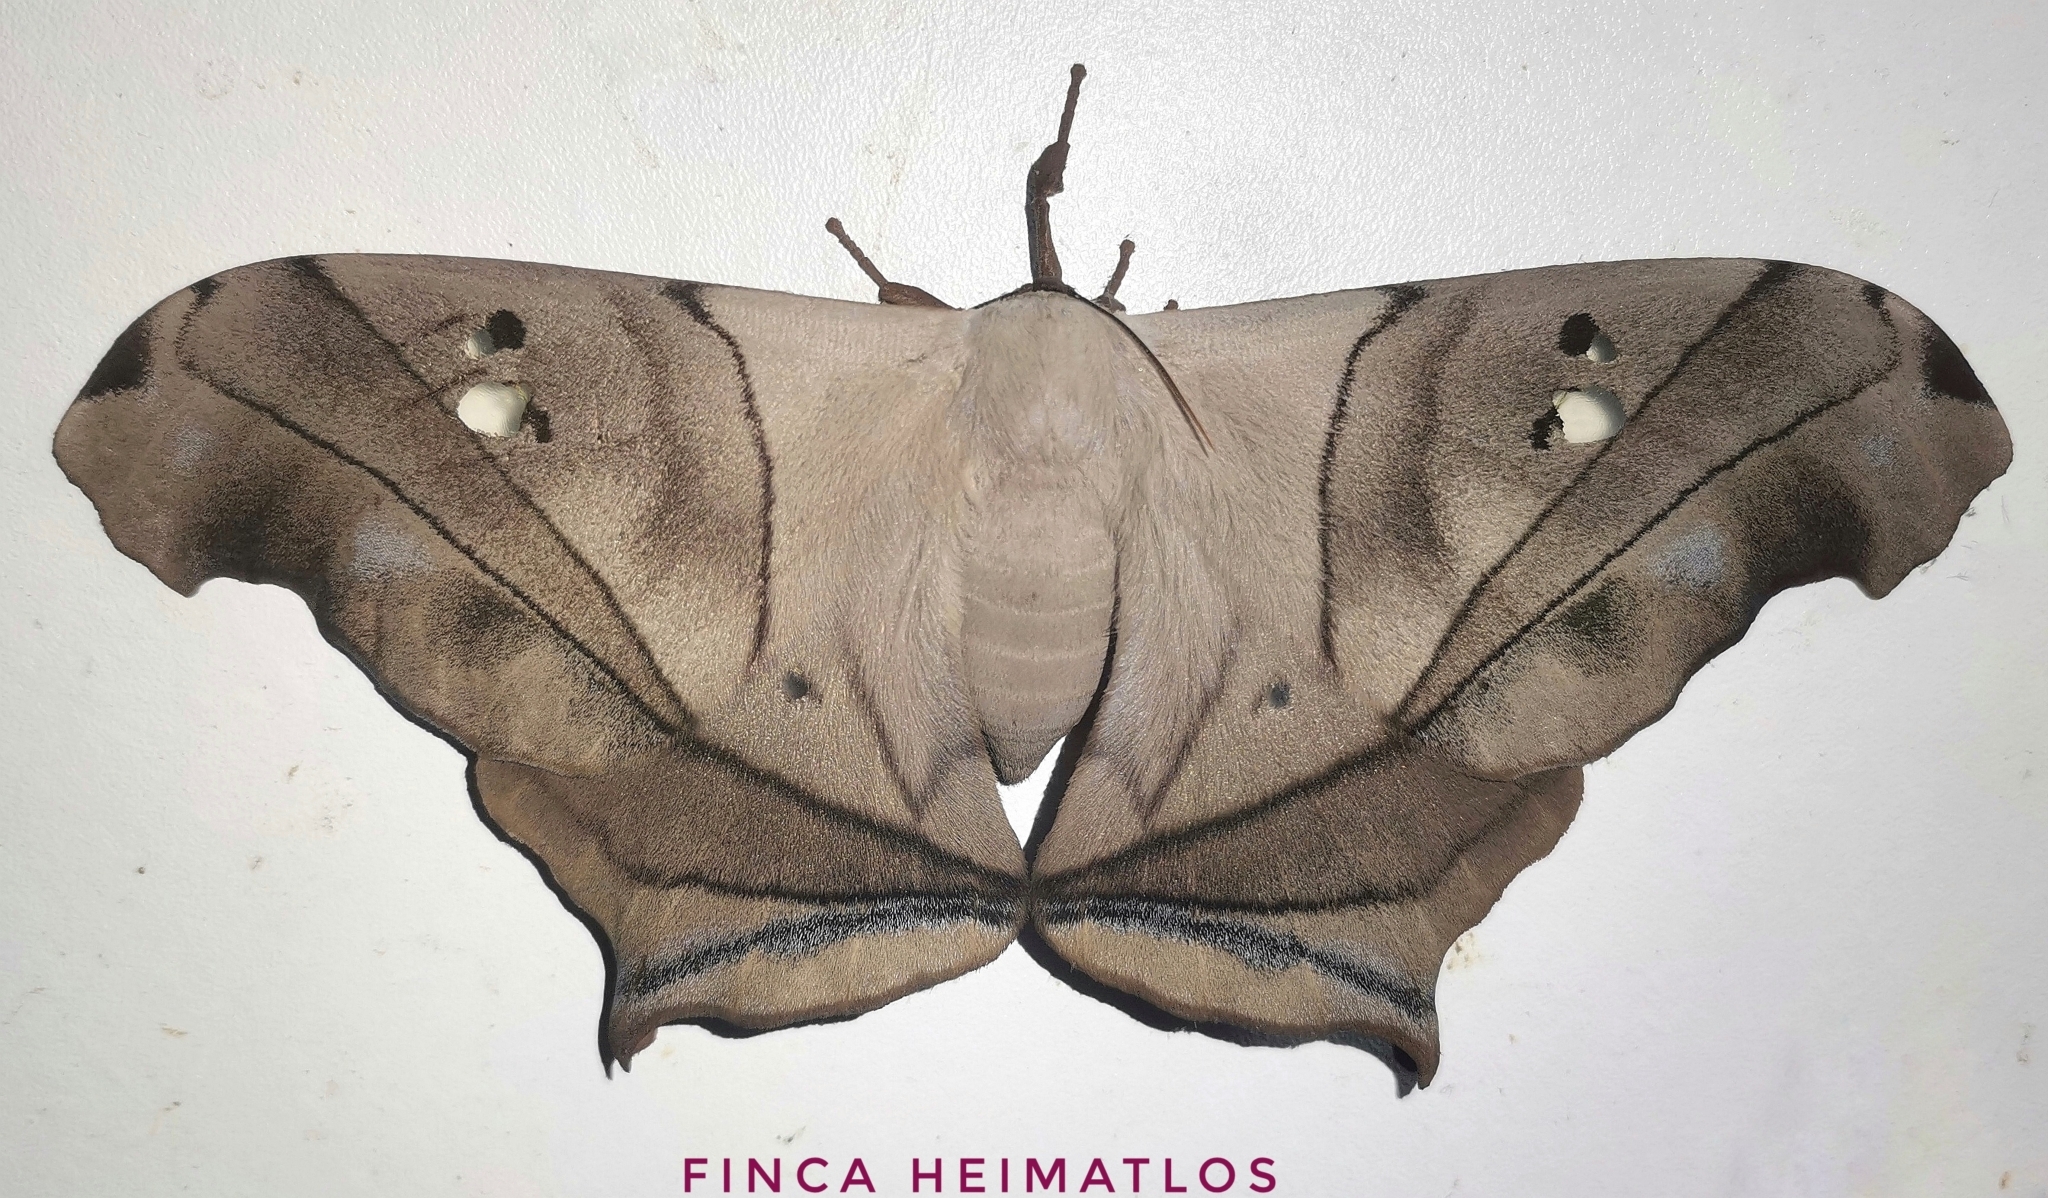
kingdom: Animalia
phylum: Arthropoda
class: Insecta
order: Lepidoptera
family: Saturniidae
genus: Dysdaemonia
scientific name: Dysdaemonia boreas
